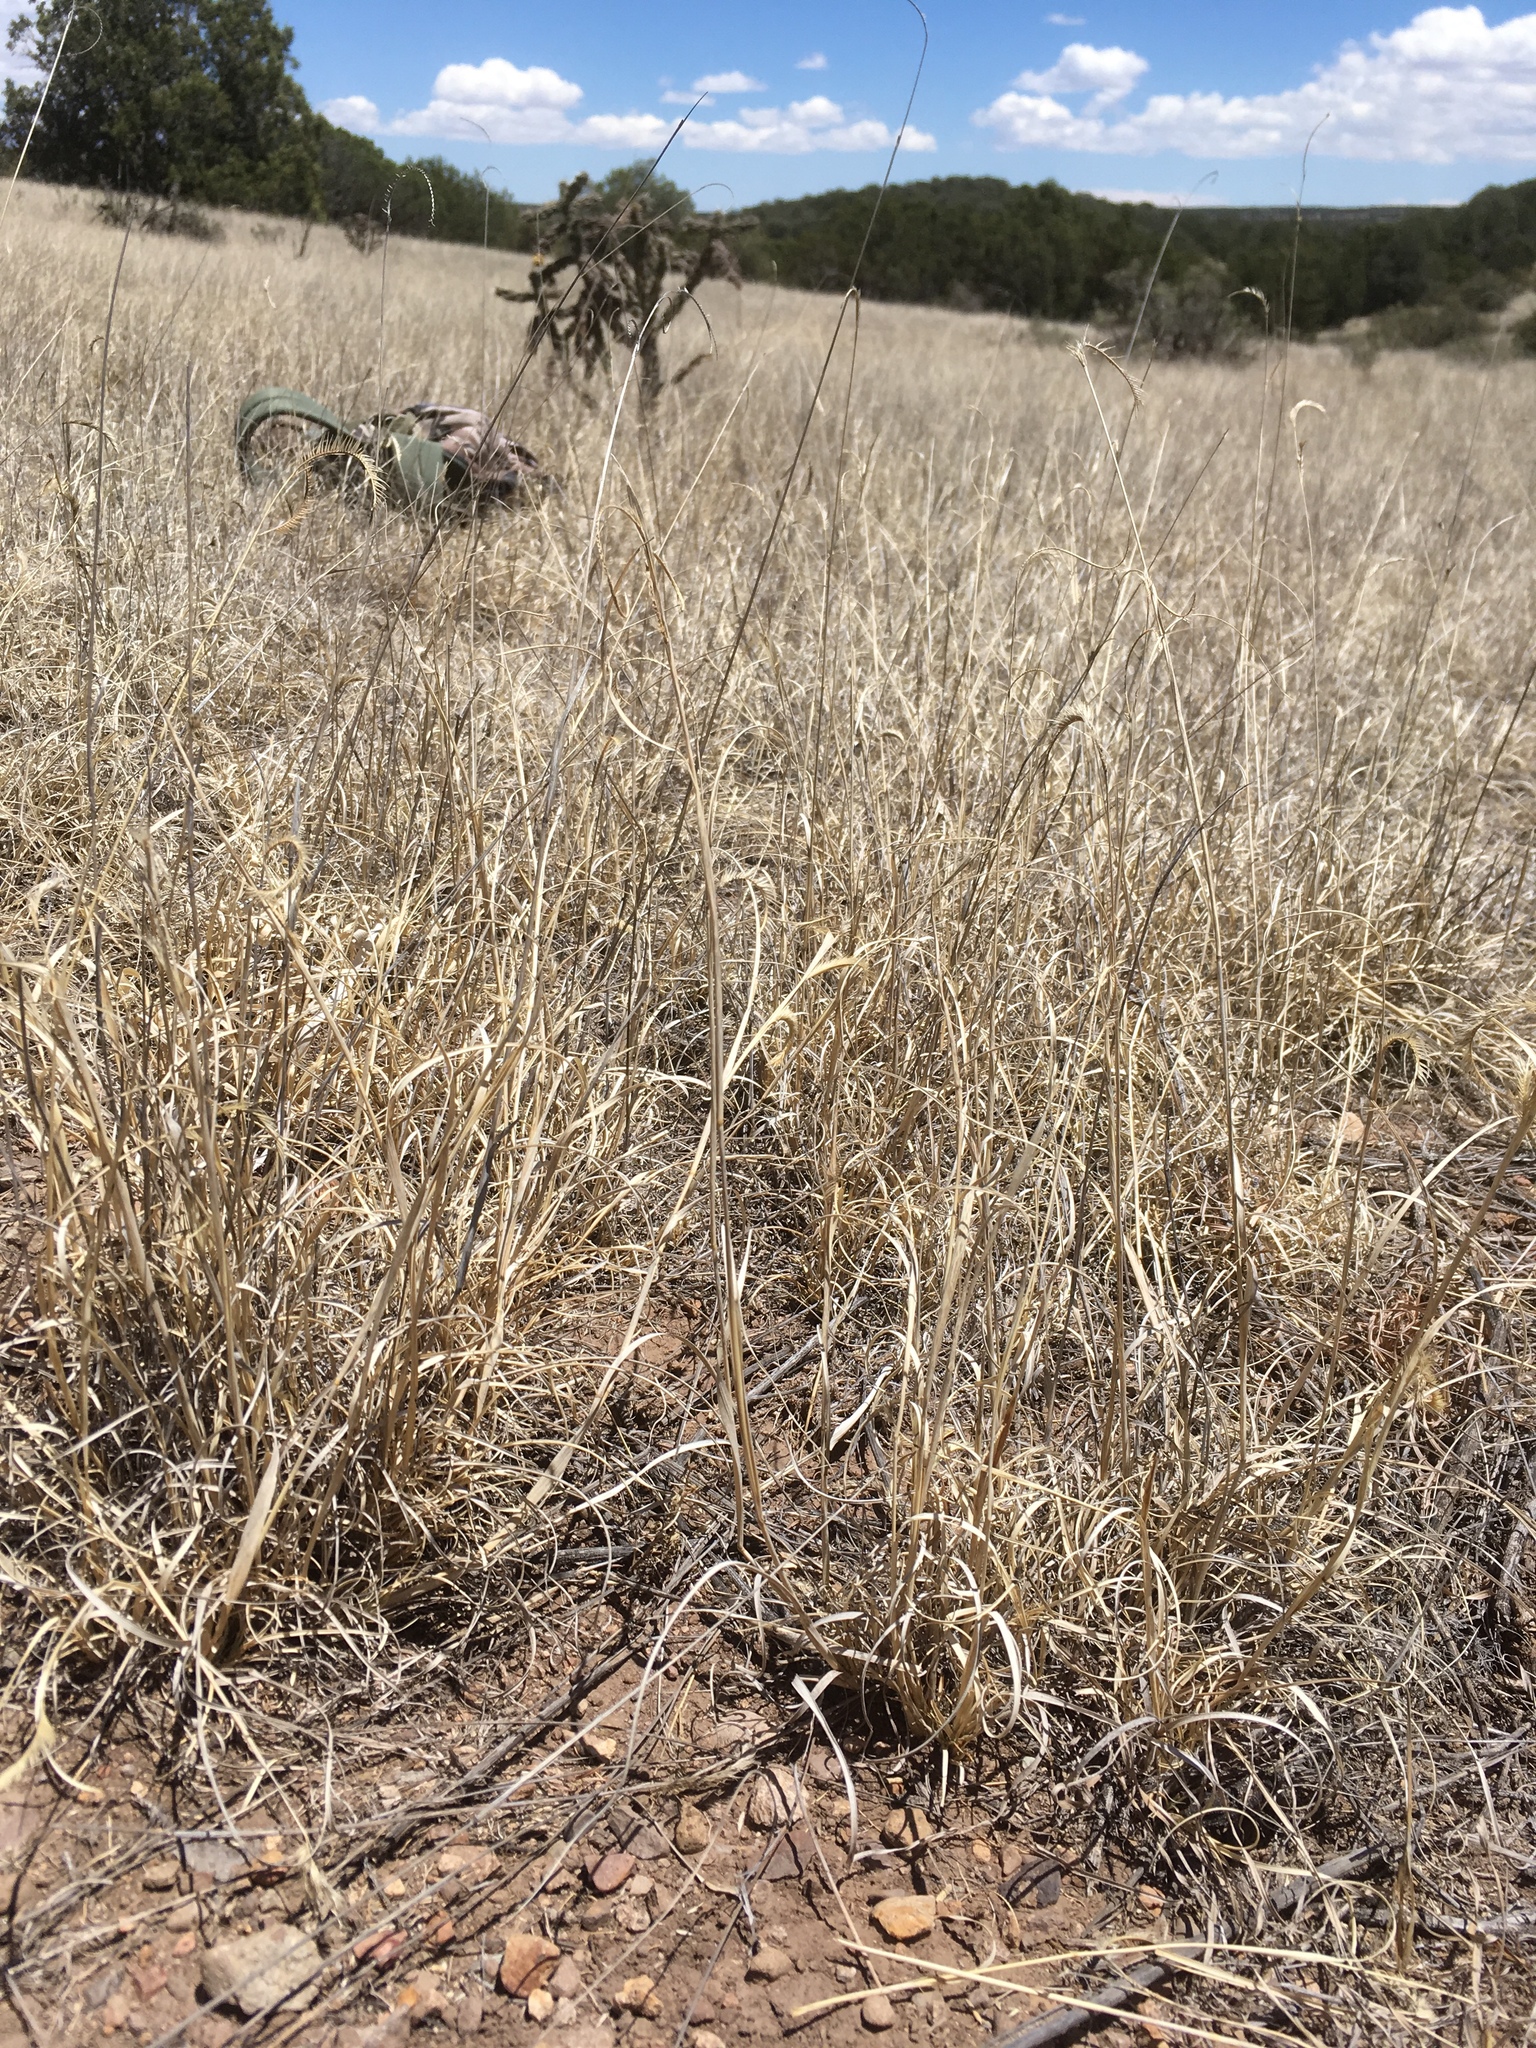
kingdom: Plantae
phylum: Tracheophyta
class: Liliopsida
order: Poales
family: Poaceae
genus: Bouteloua
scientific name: Bouteloua gracilis
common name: Blue grama
